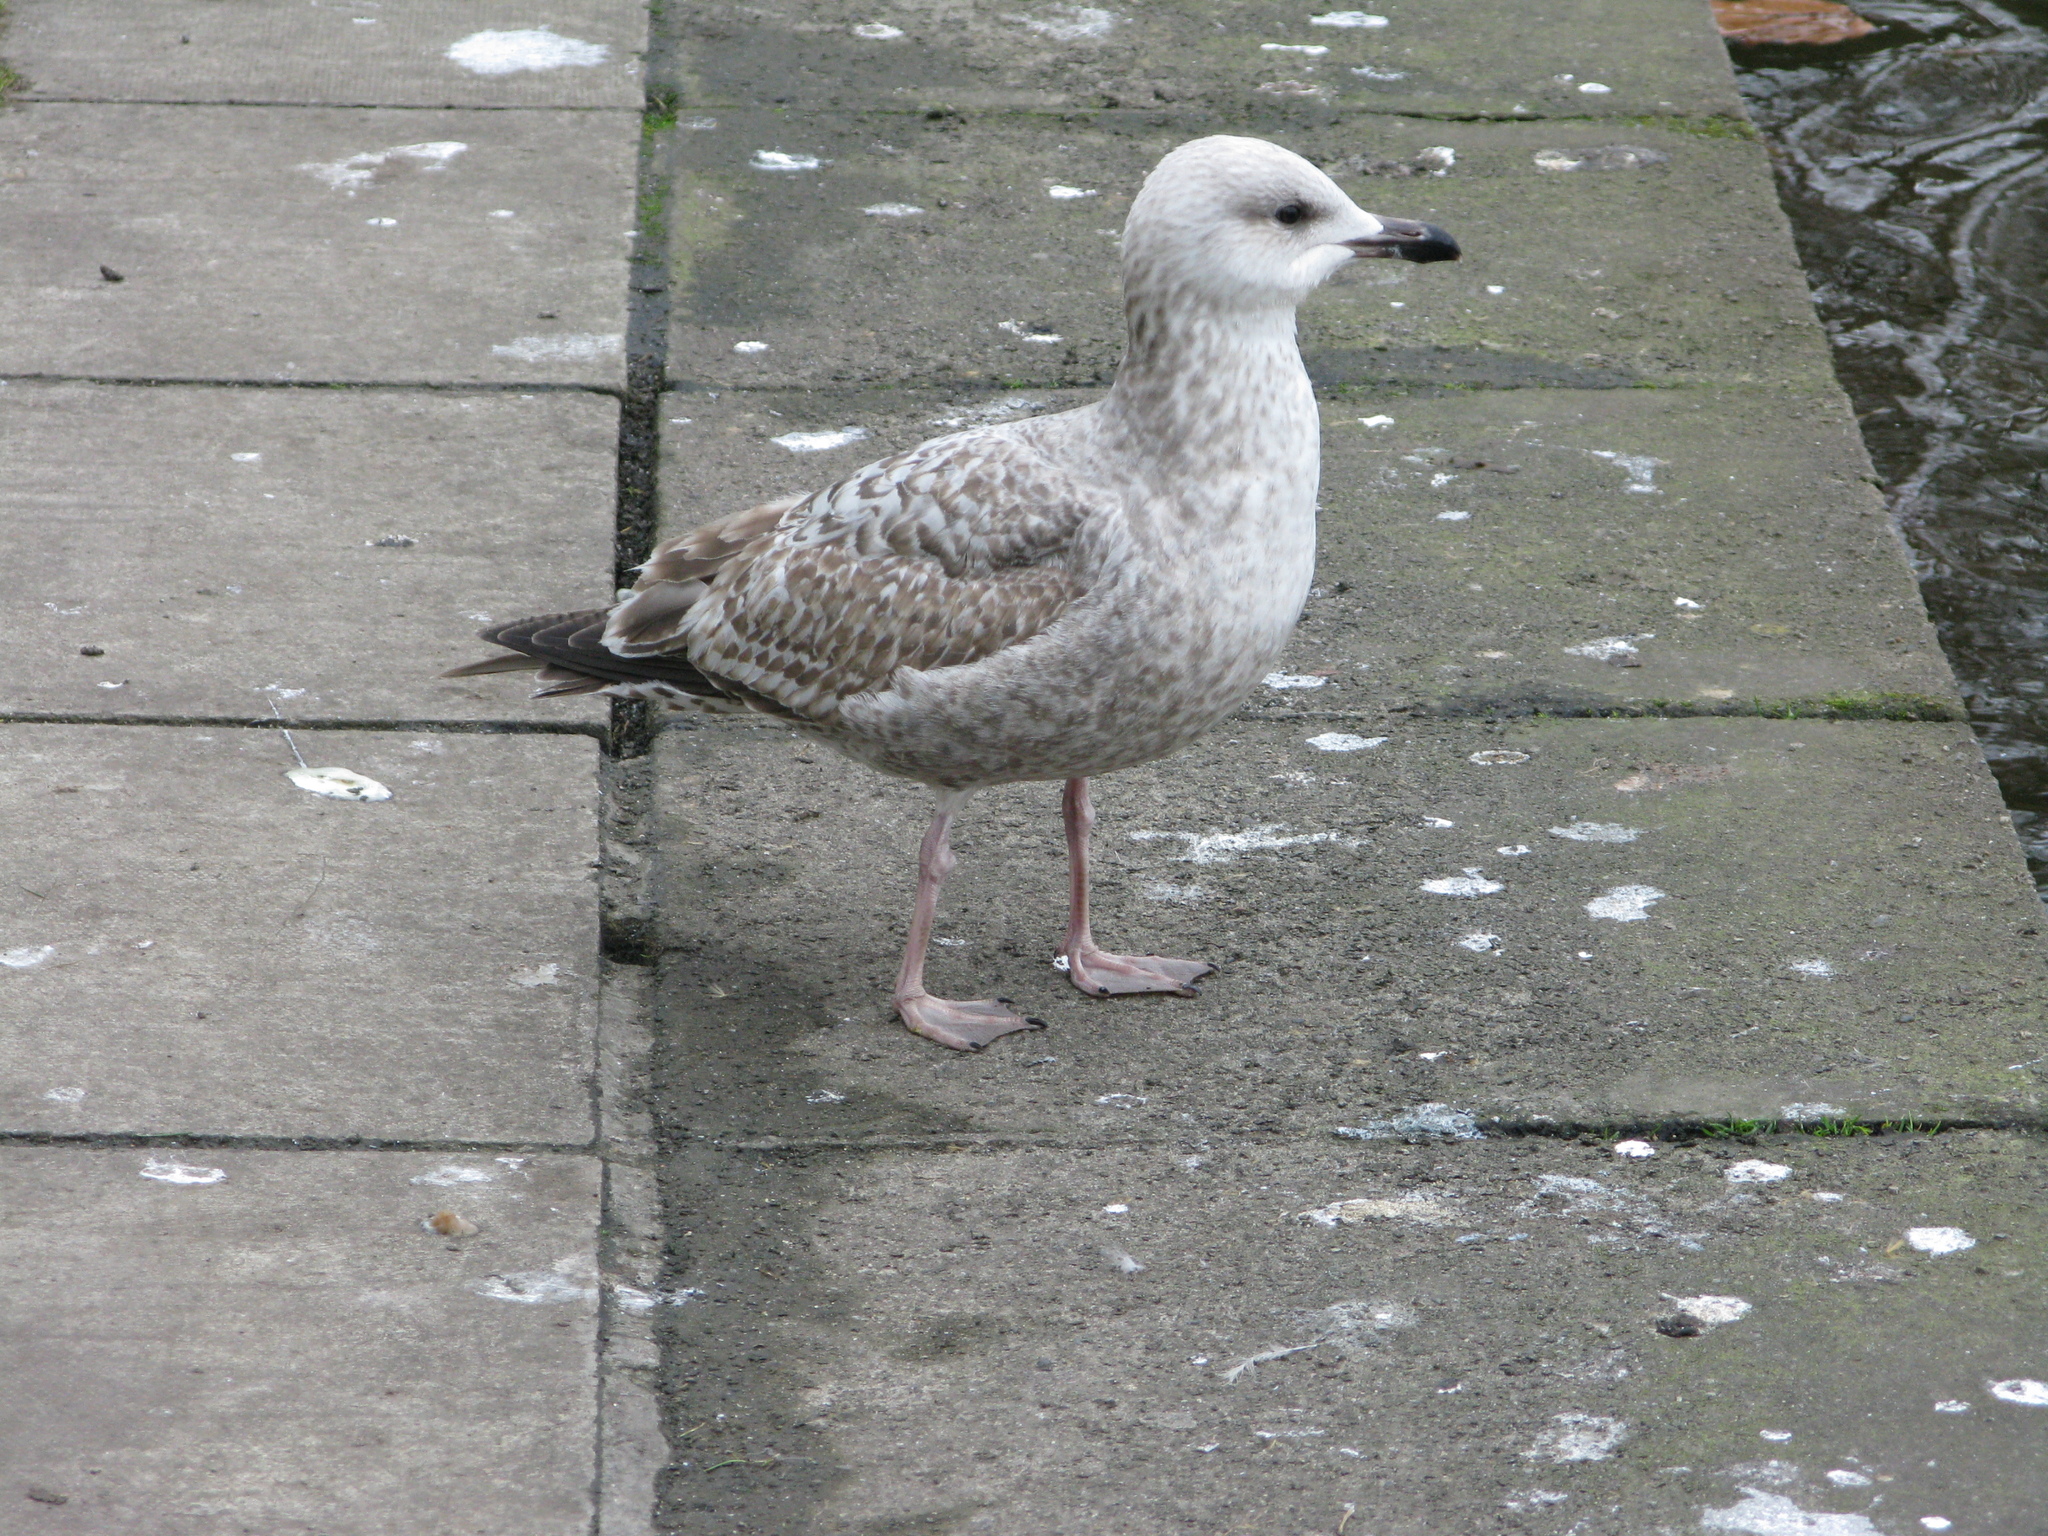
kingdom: Animalia
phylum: Chordata
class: Aves
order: Charadriiformes
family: Laridae
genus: Larus
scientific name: Larus argentatus
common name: Herring gull
